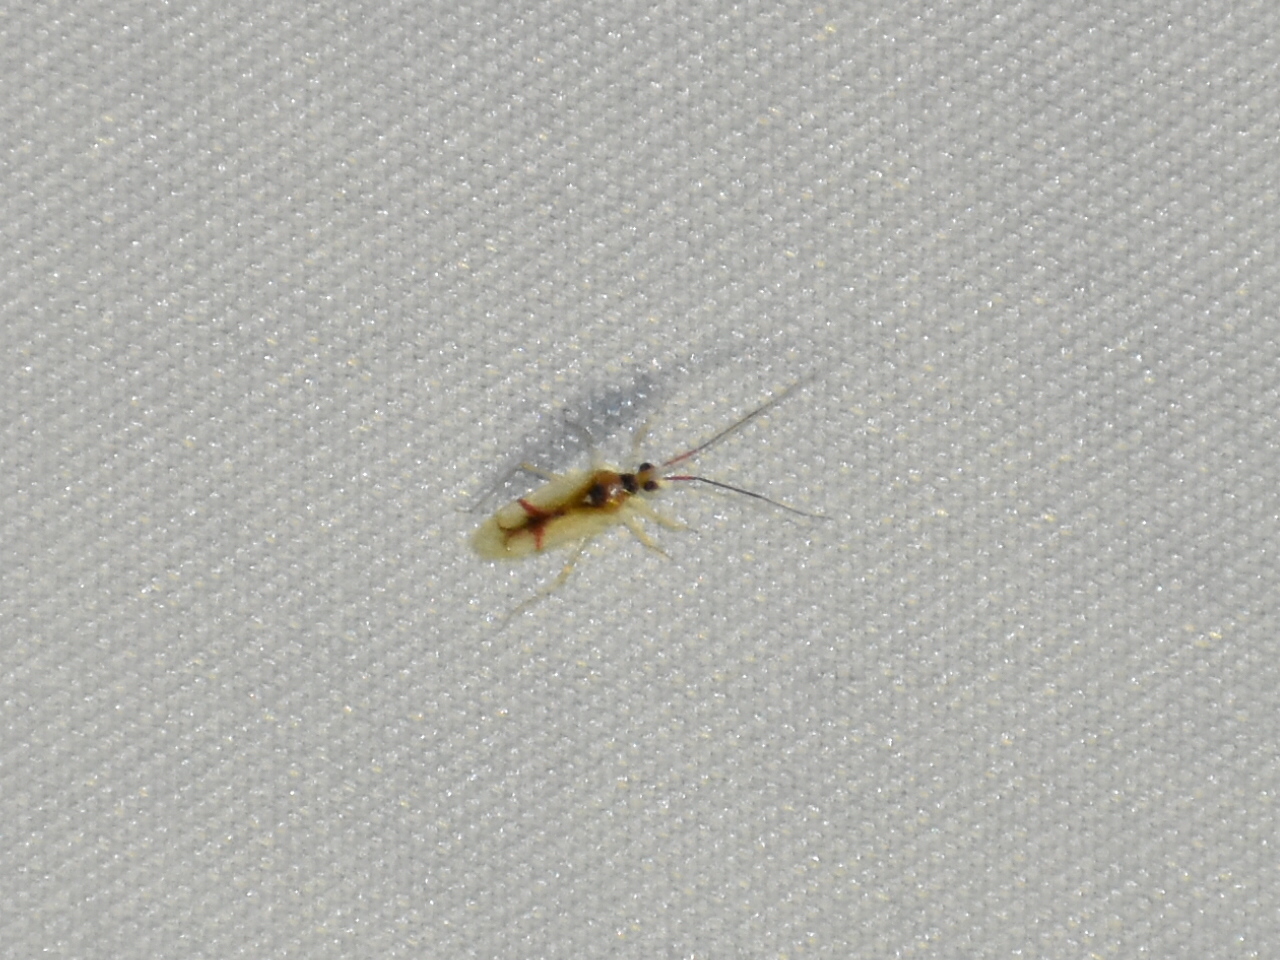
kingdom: Animalia
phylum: Arthropoda
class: Insecta
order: Hemiptera
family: Miridae
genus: Hyaliodes
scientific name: Hyaliodes harti
